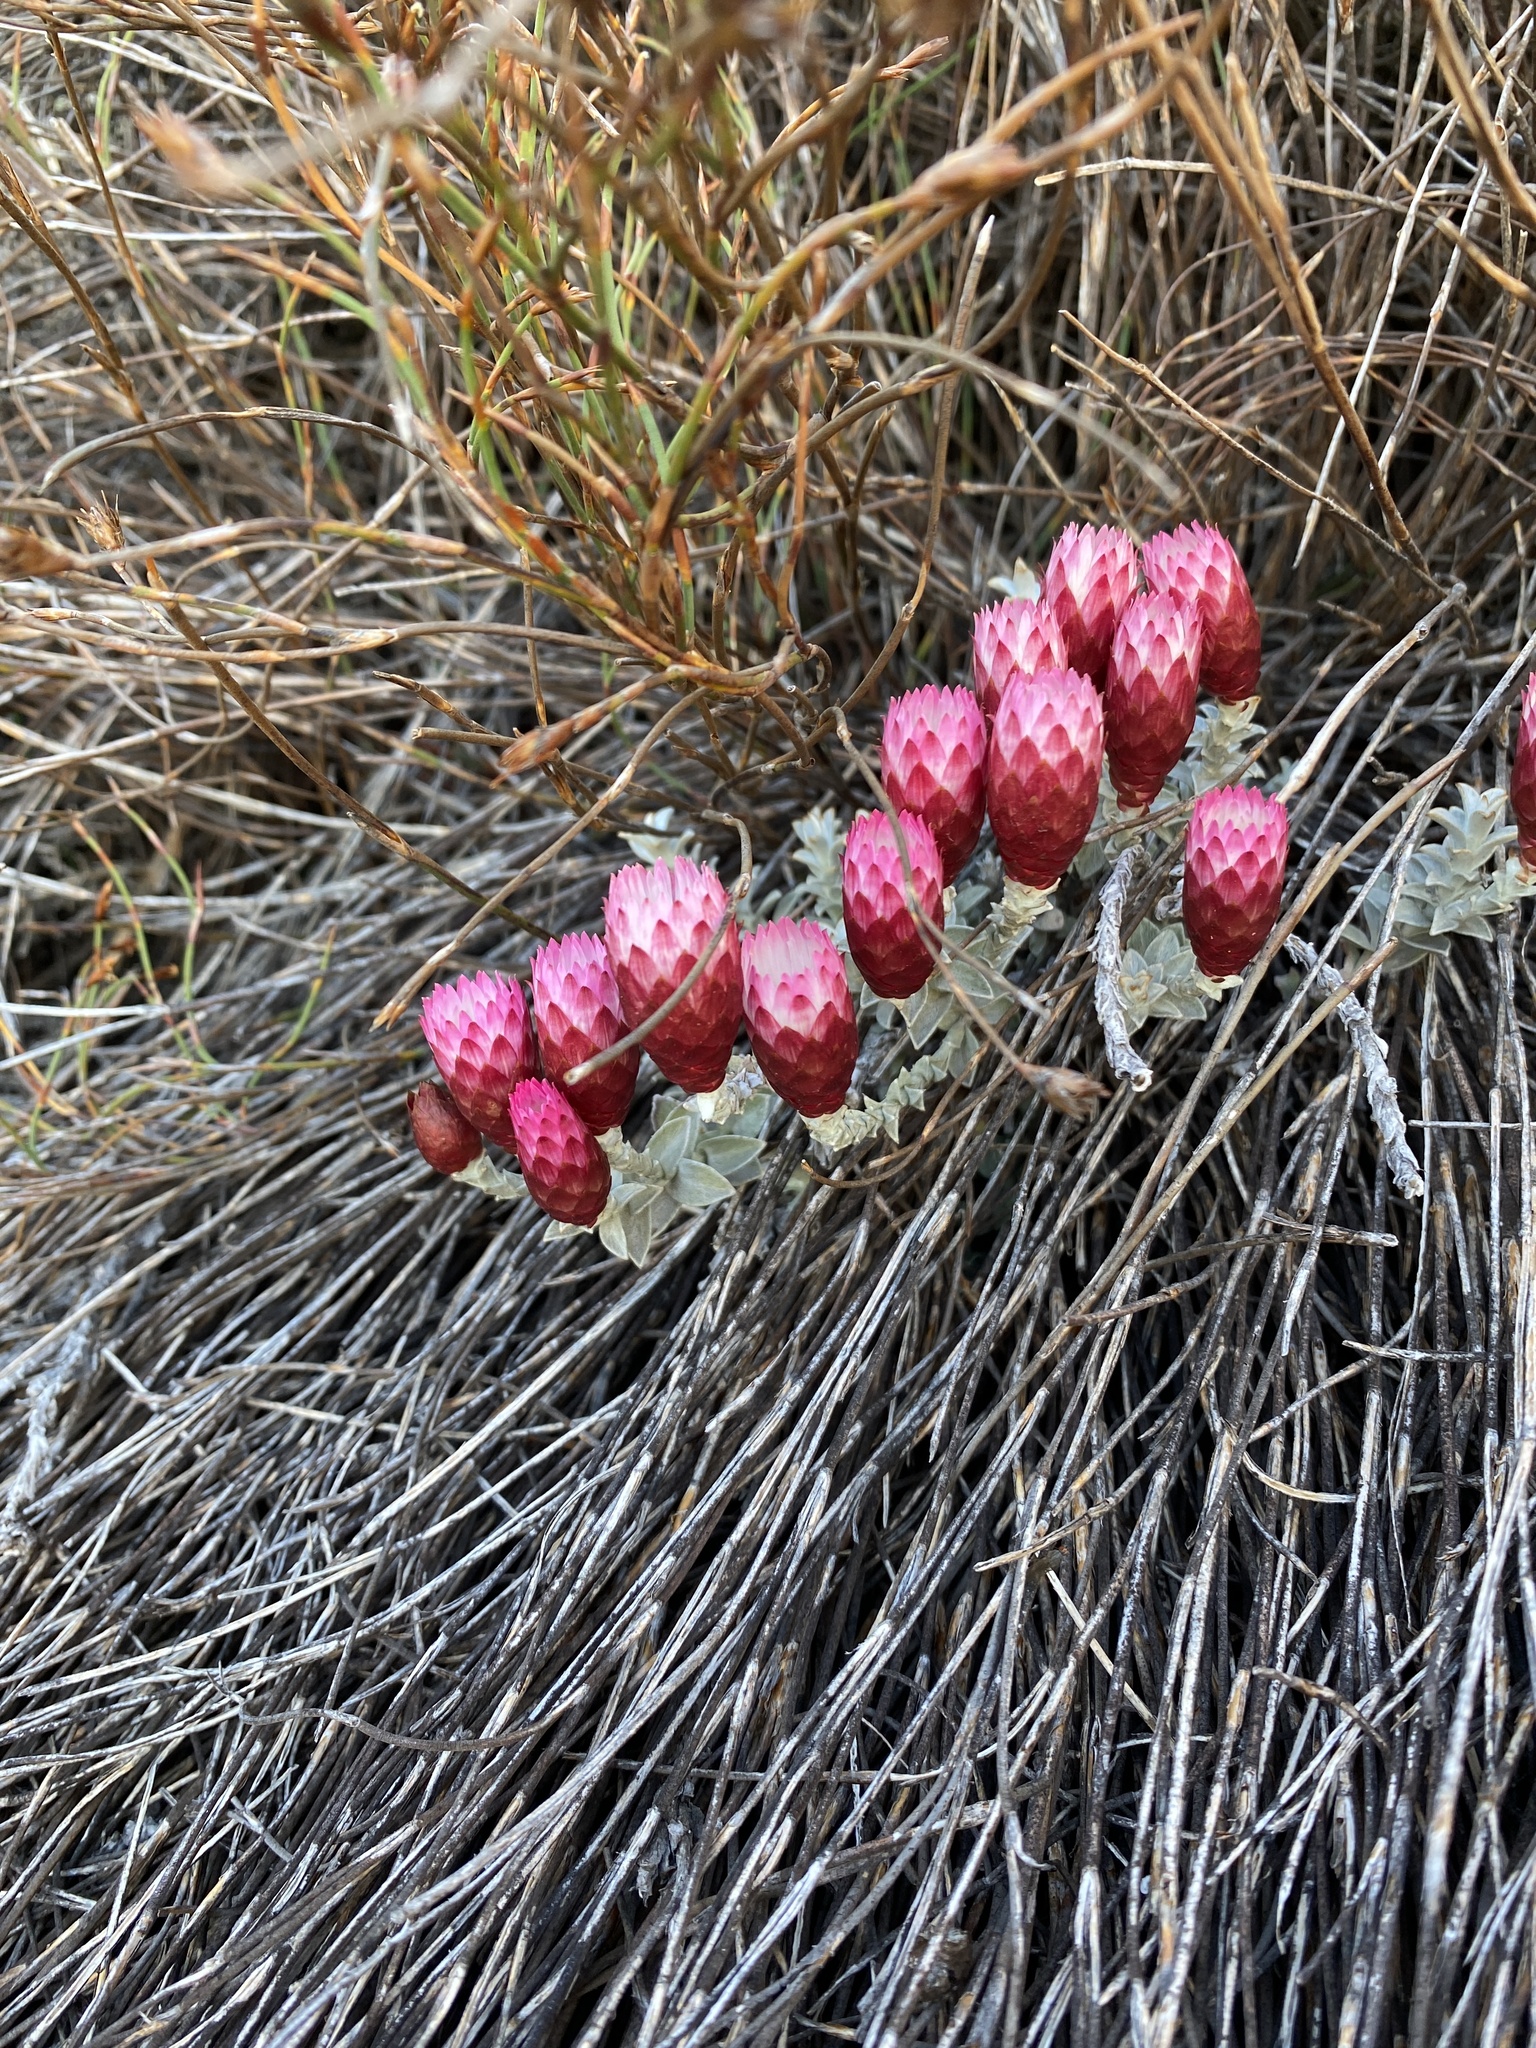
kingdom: Plantae
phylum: Tracheophyta
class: Magnoliopsida
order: Asterales
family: Asteraceae
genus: Syncarpha
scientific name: Syncarpha canescens
